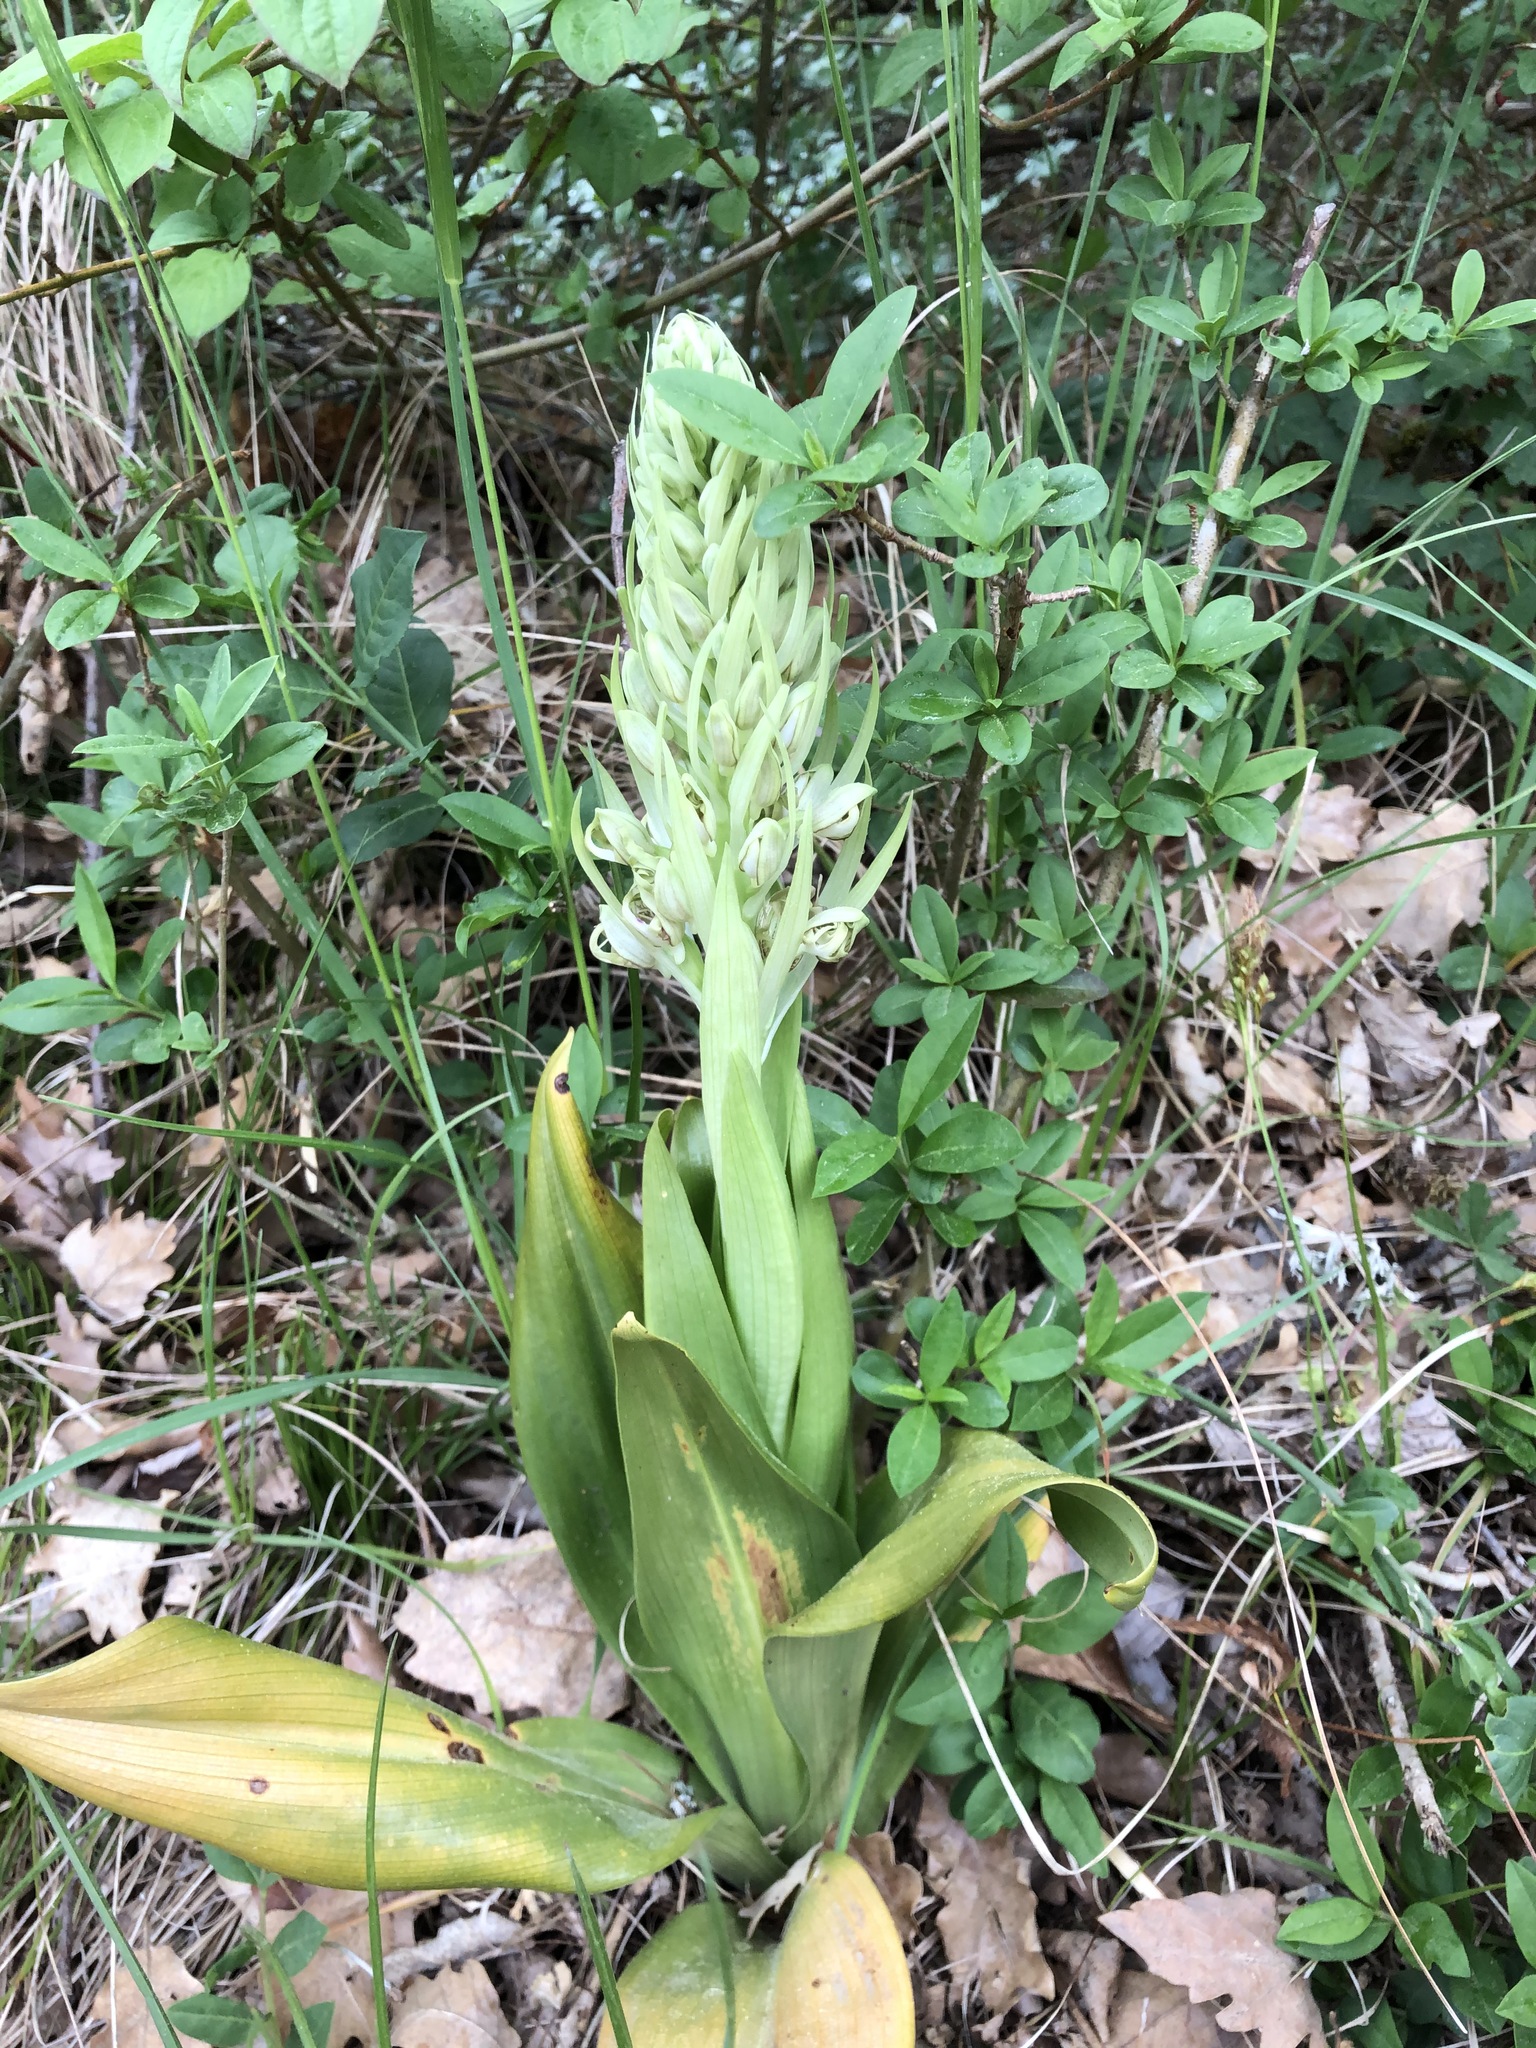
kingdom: Plantae
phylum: Tracheophyta
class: Liliopsida
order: Asparagales
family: Orchidaceae
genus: Himantoglossum
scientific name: Himantoglossum hircinum
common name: Lizard orchid
